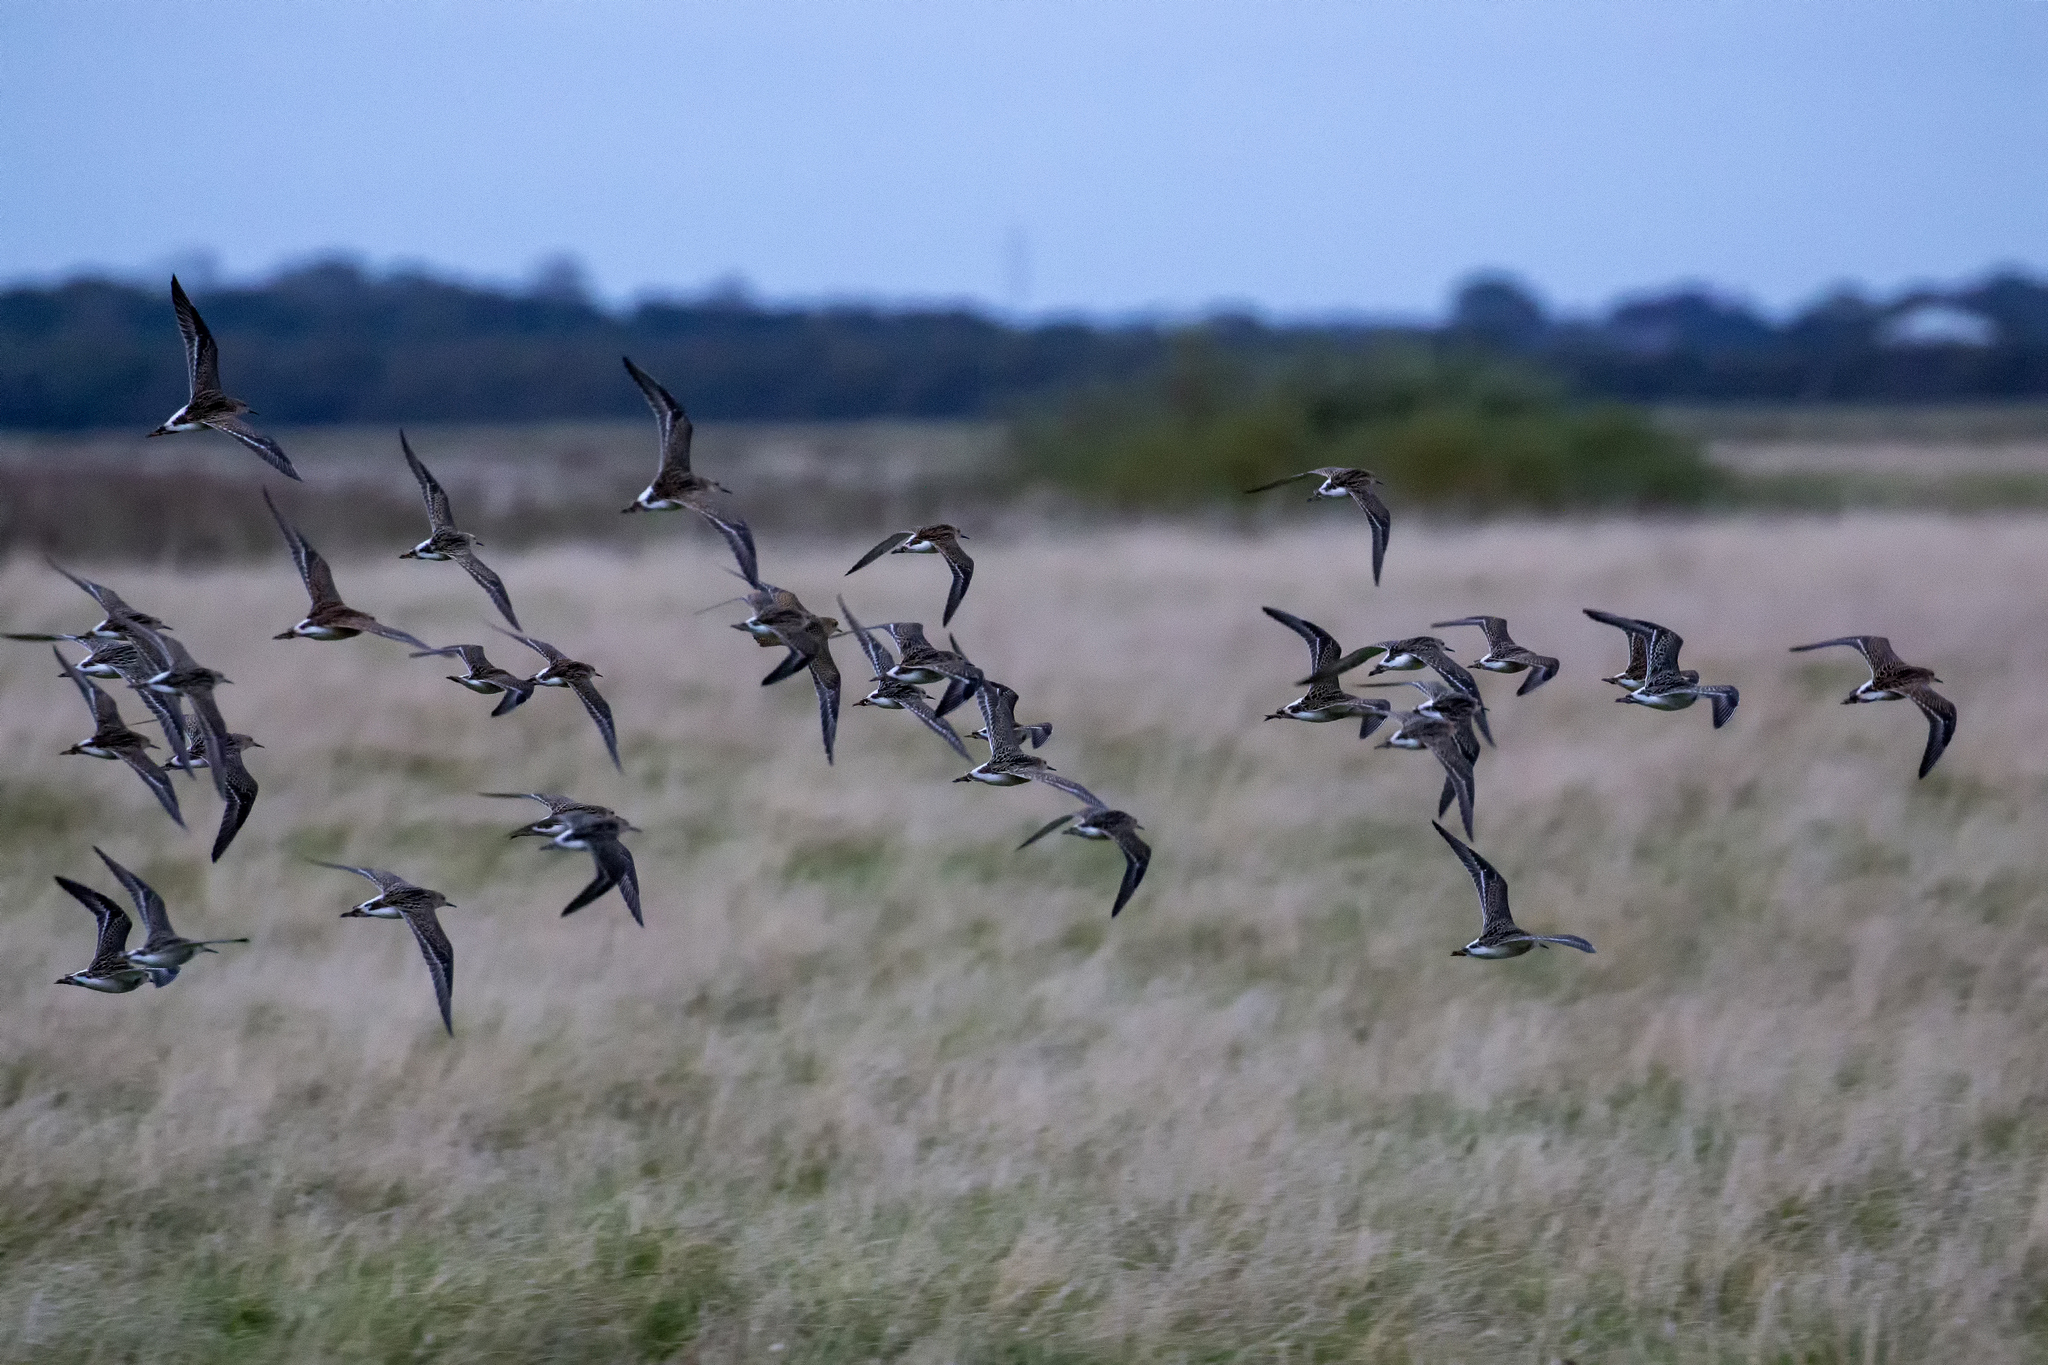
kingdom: Animalia
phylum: Chordata
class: Aves
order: Charadriiformes
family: Scolopacidae
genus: Calidris
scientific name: Calidris pugnax
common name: Ruff
